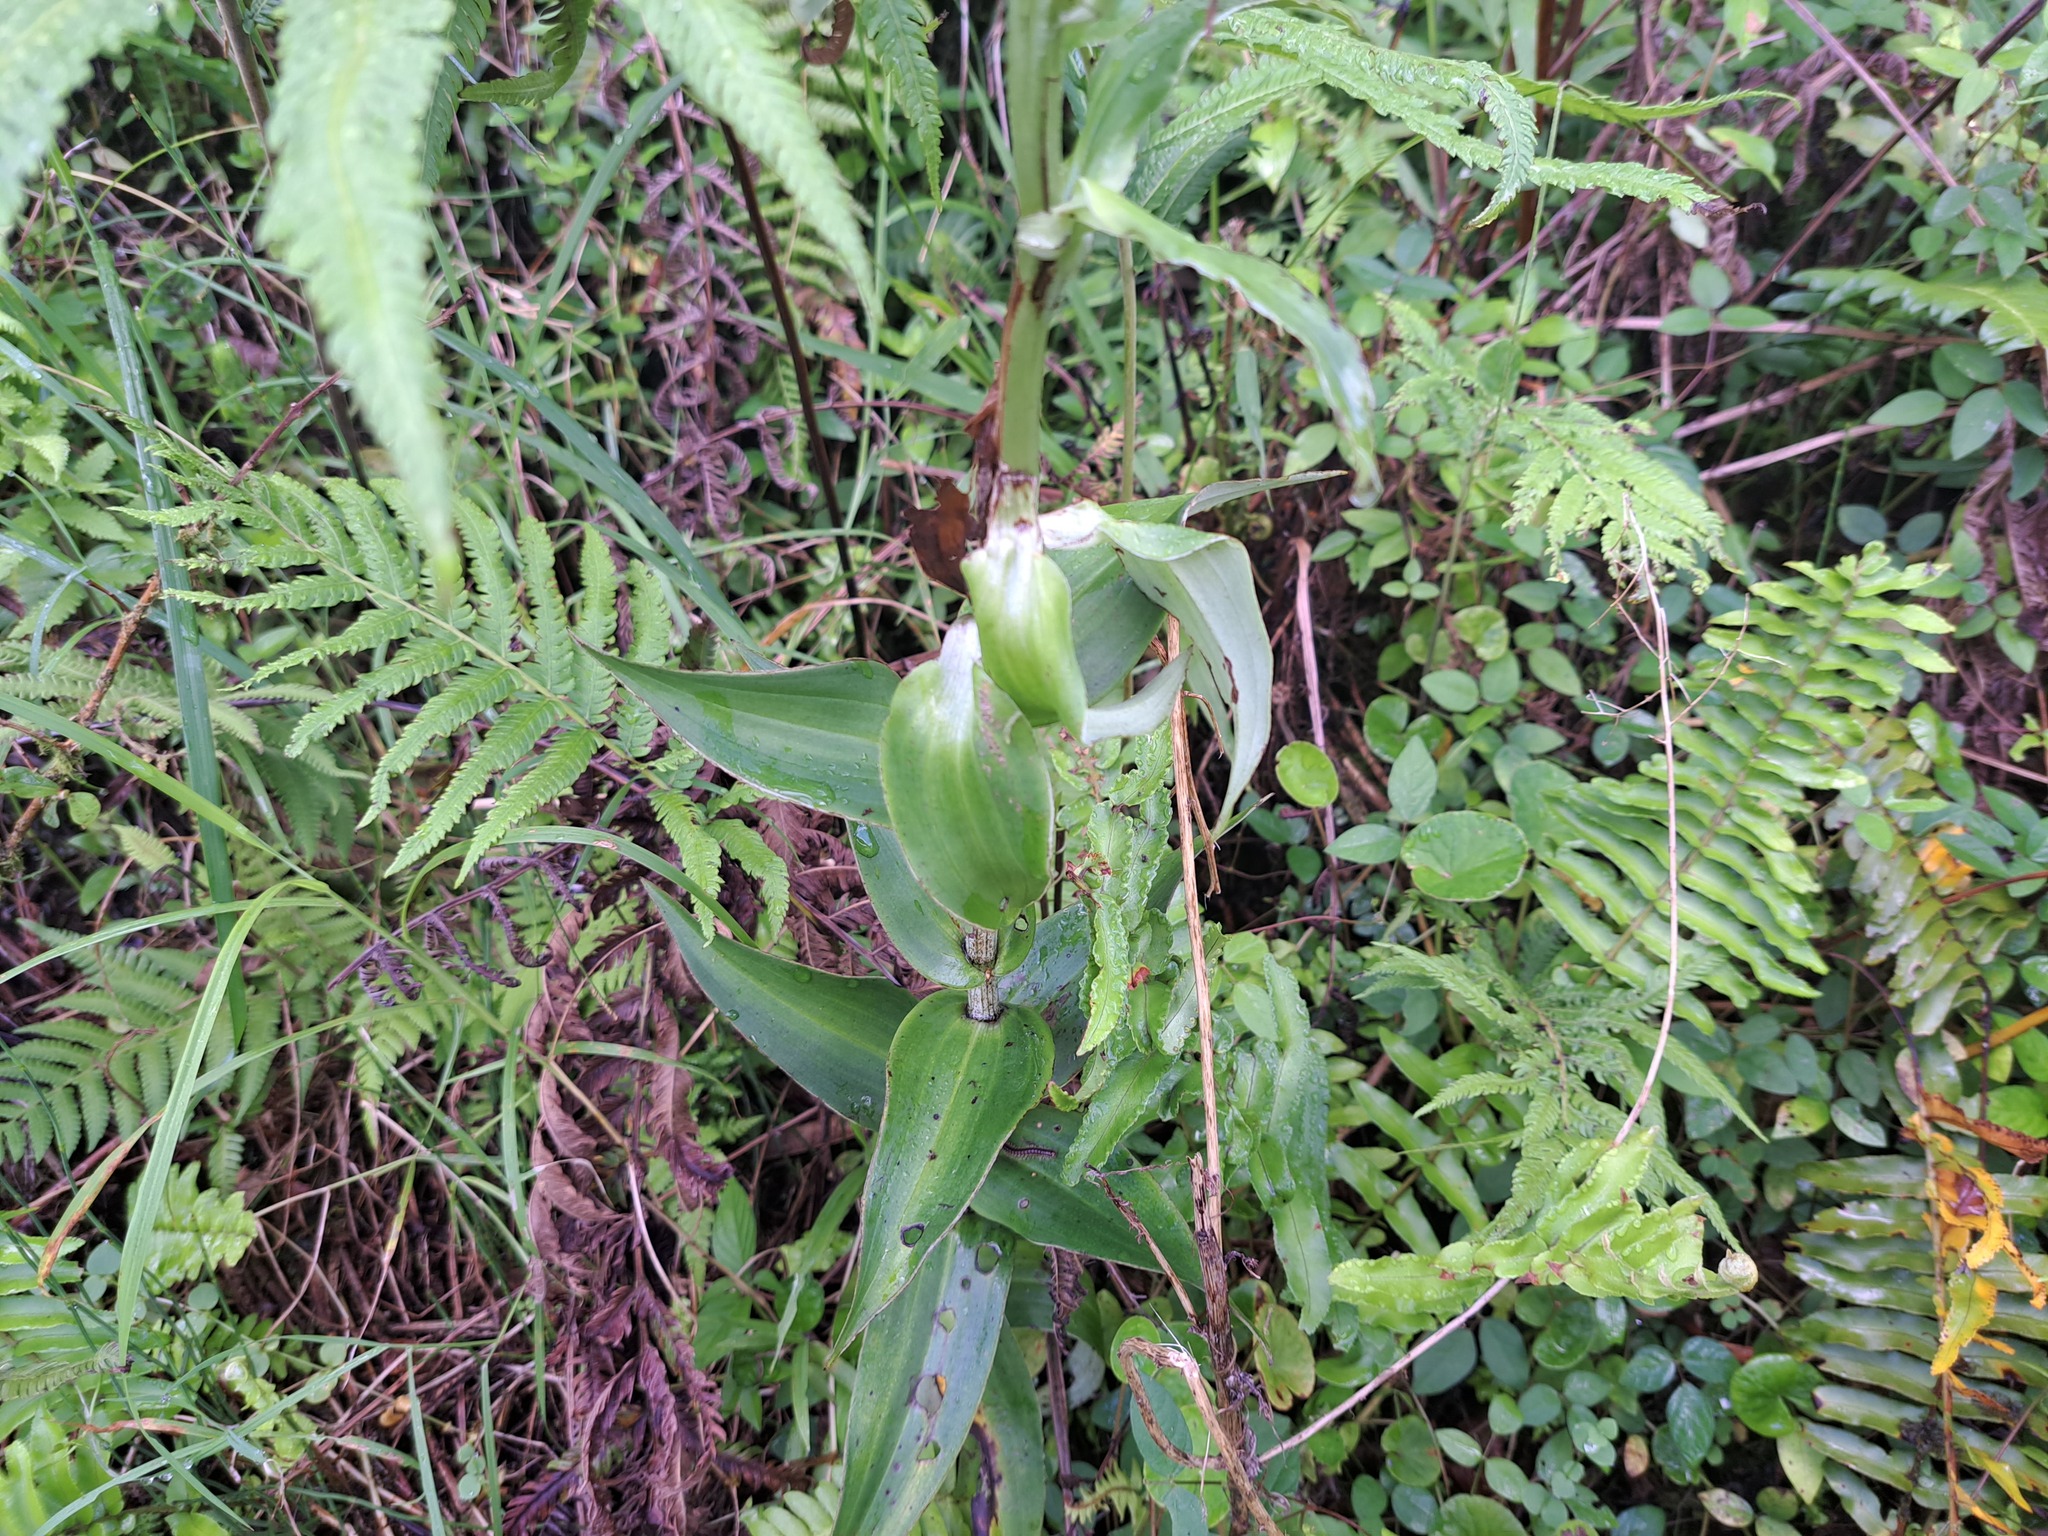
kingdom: Plantae
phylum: Tracheophyta
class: Liliopsida
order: Asparagales
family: Orchidaceae
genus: Habenaria
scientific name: Habenaria monorrhiza
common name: Tropical bog orchid
